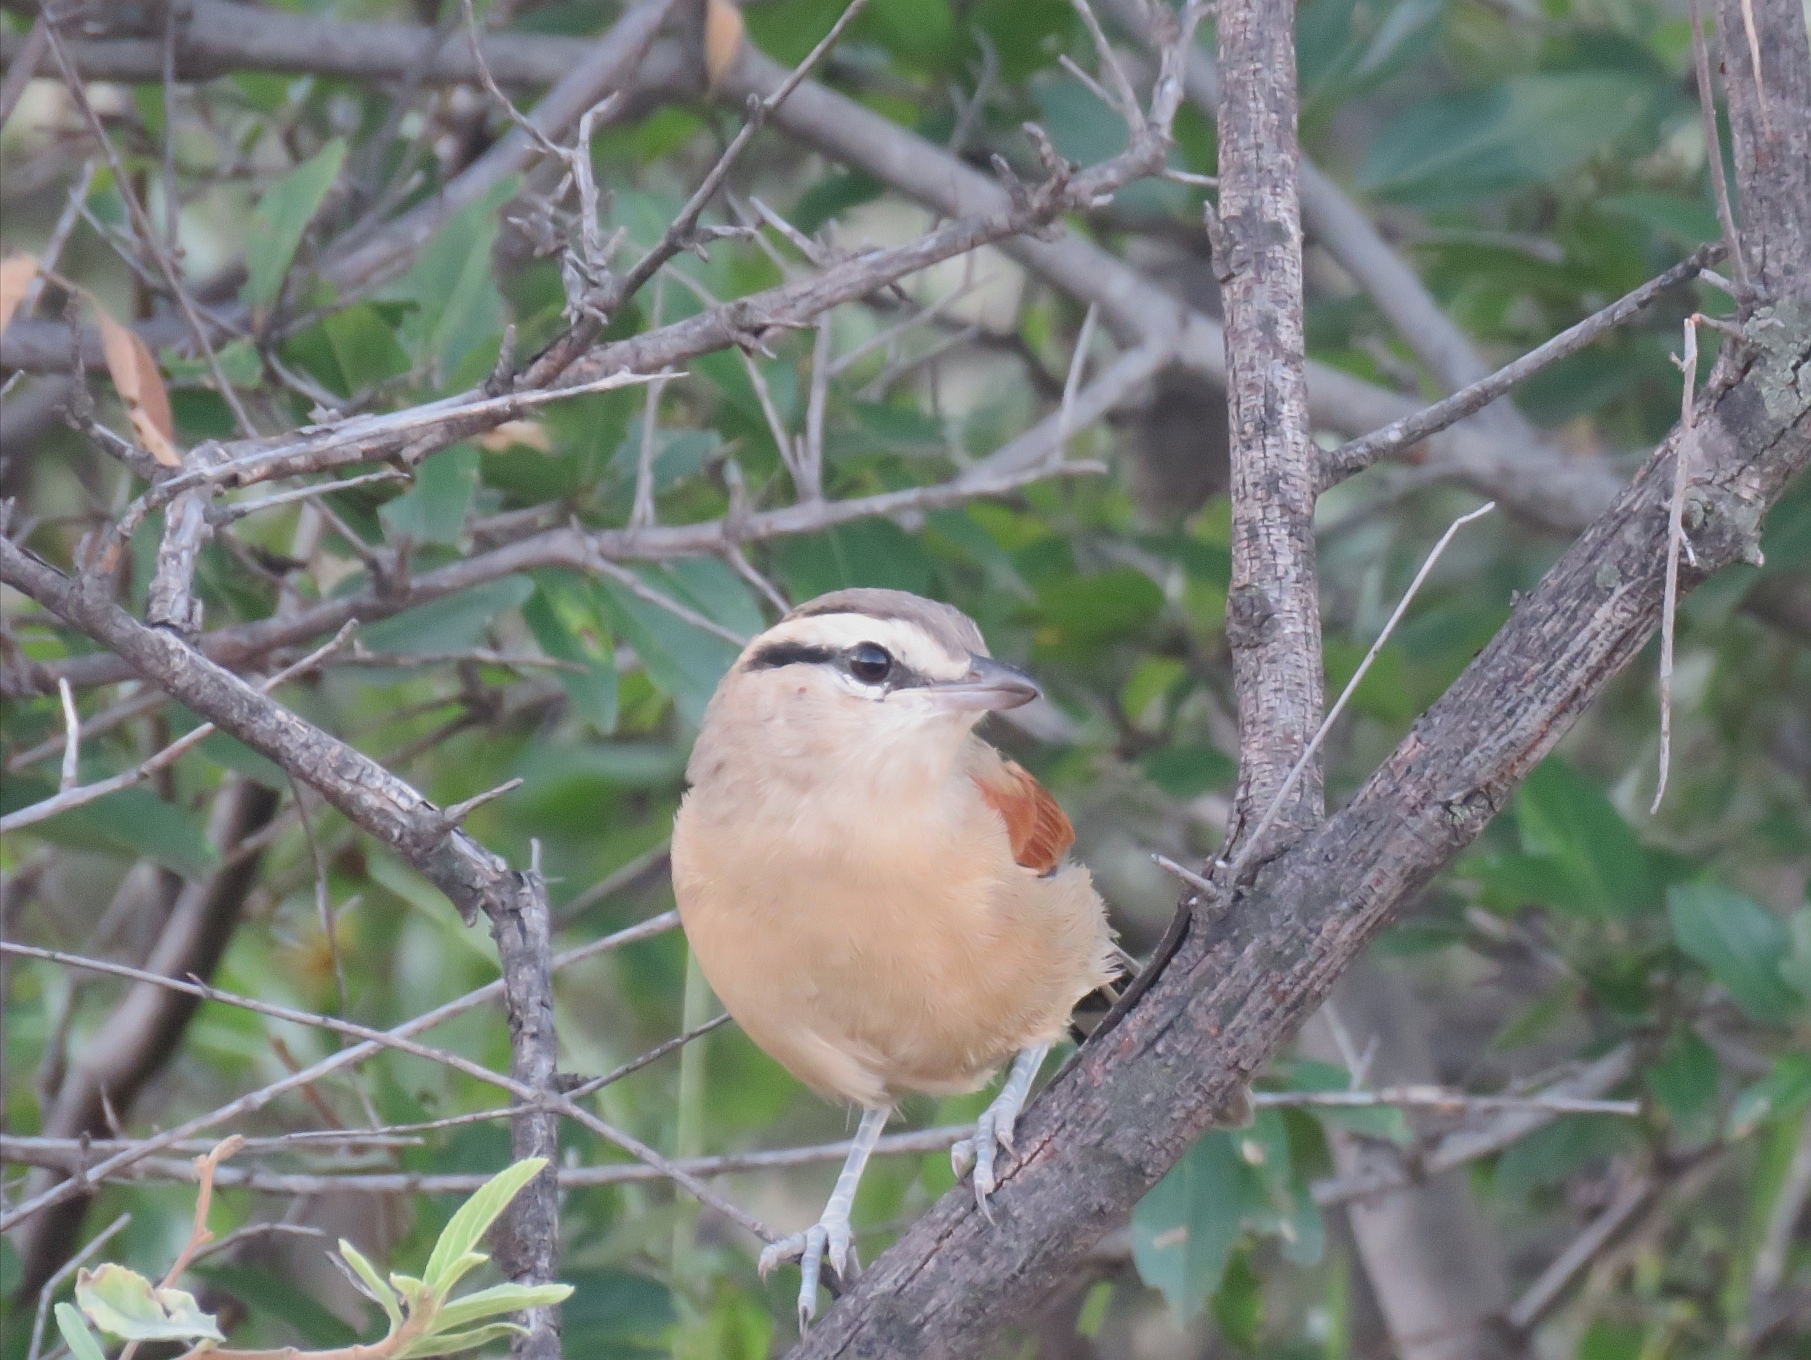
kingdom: Animalia
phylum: Chordata
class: Aves
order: Passeriformes
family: Malaconotidae
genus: Tchagra
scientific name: Tchagra australis
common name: Brown-crowned tchagra
